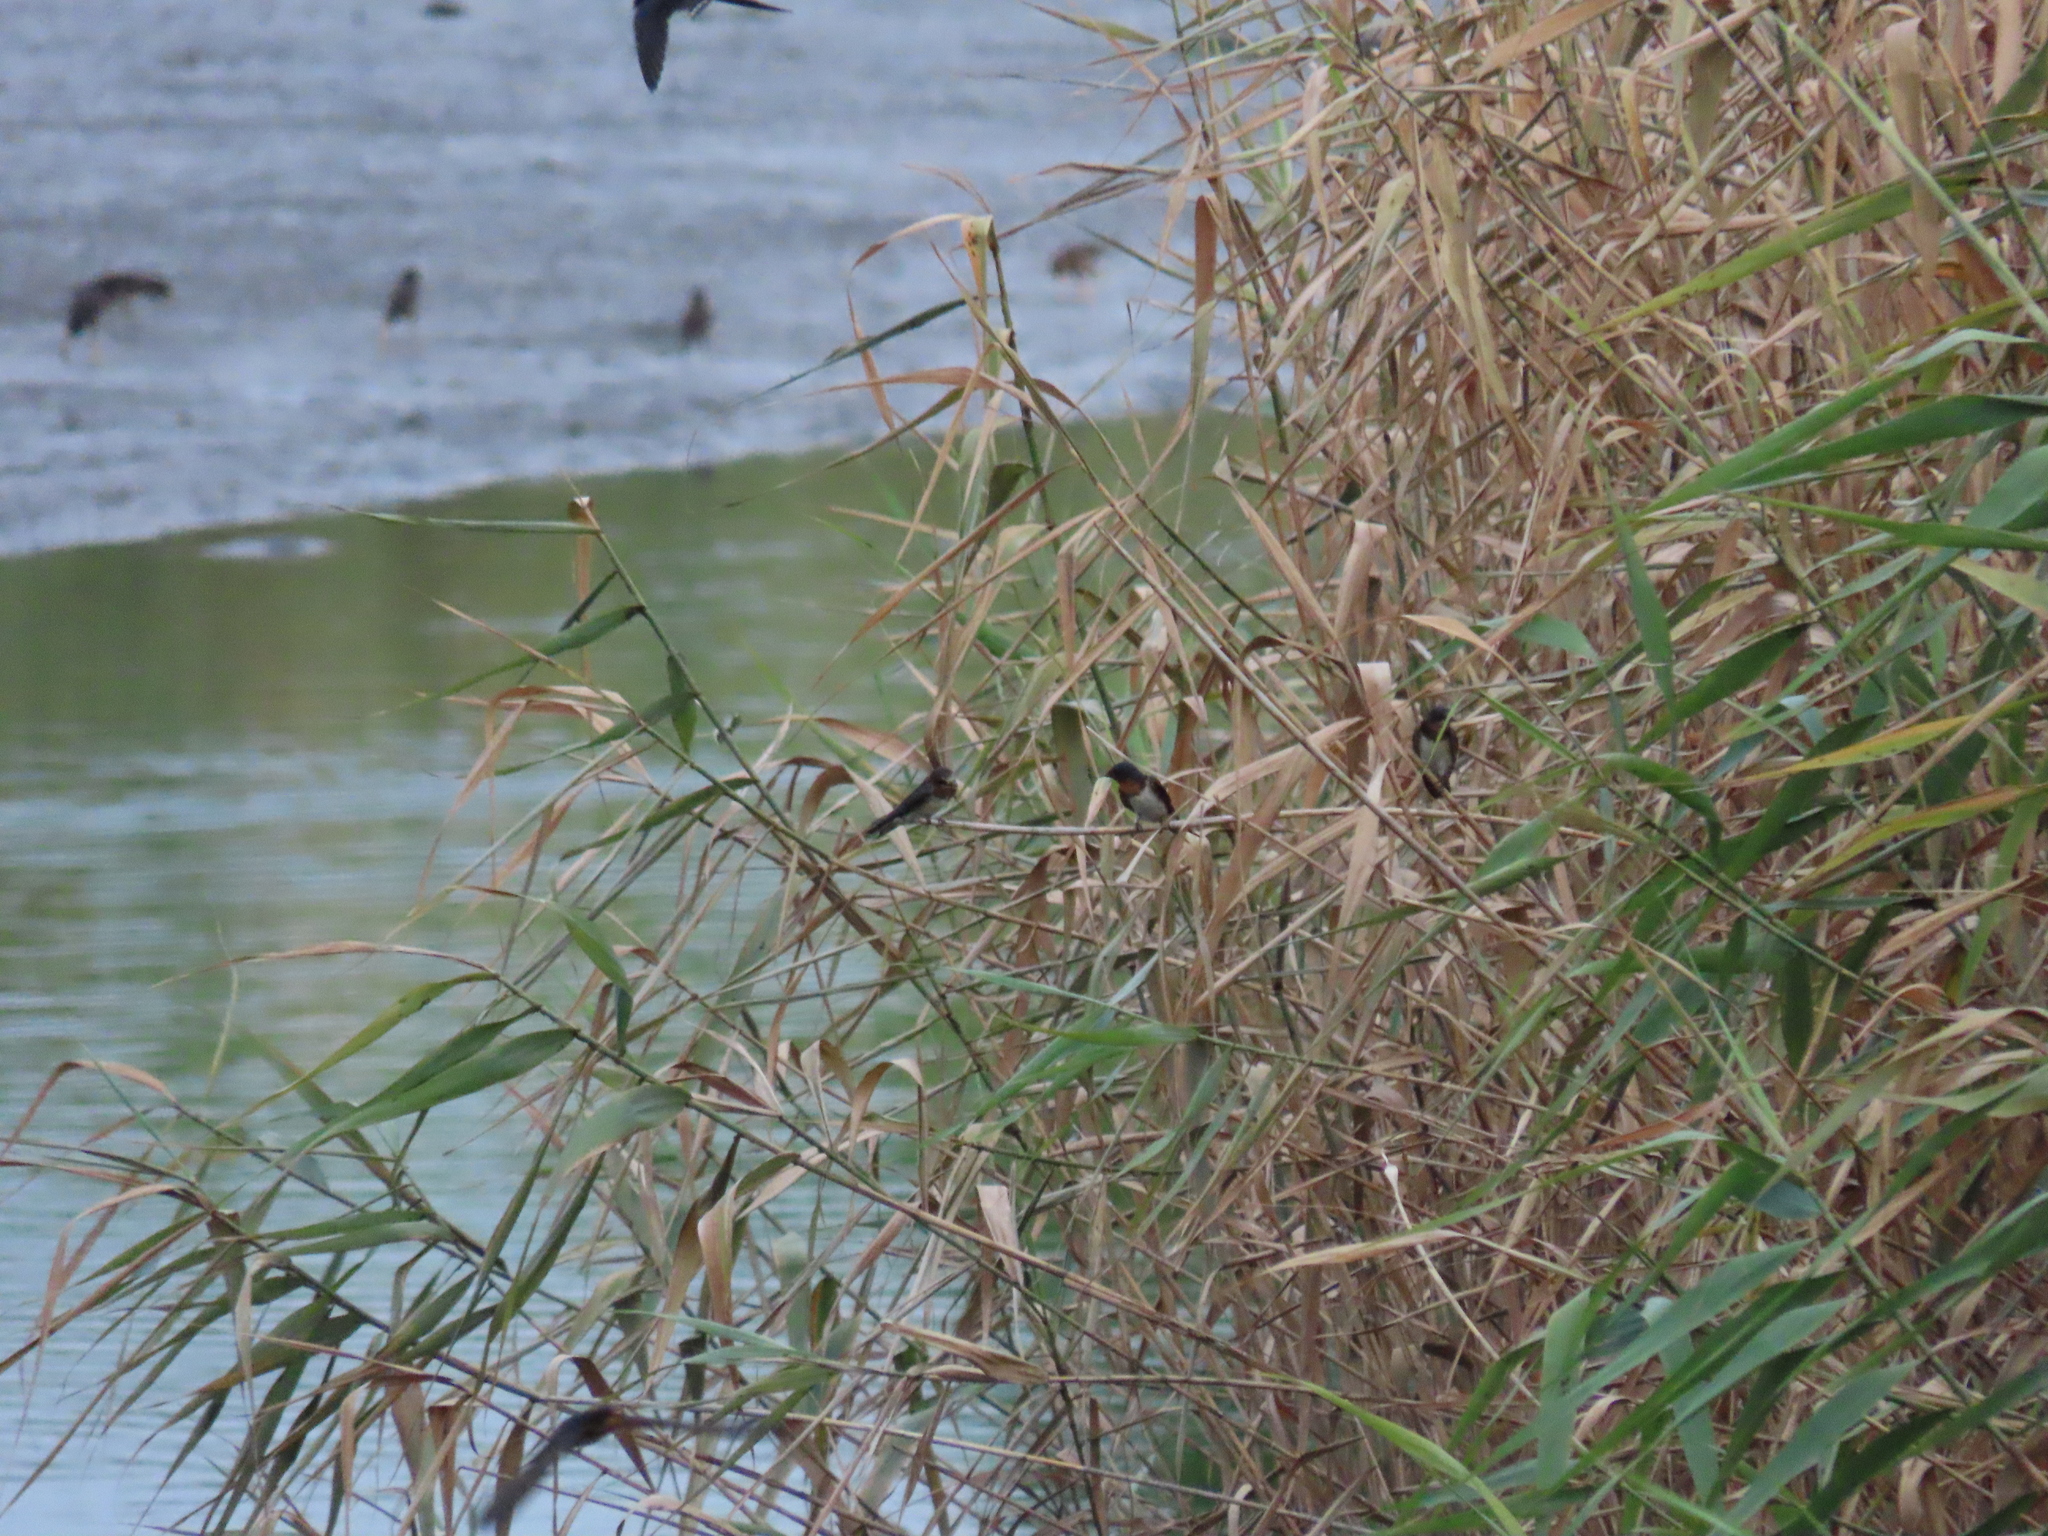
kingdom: Animalia
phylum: Chordata
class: Aves
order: Passeriformes
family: Hirundinidae
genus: Hirundo
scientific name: Hirundo rustica
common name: Barn swallow
